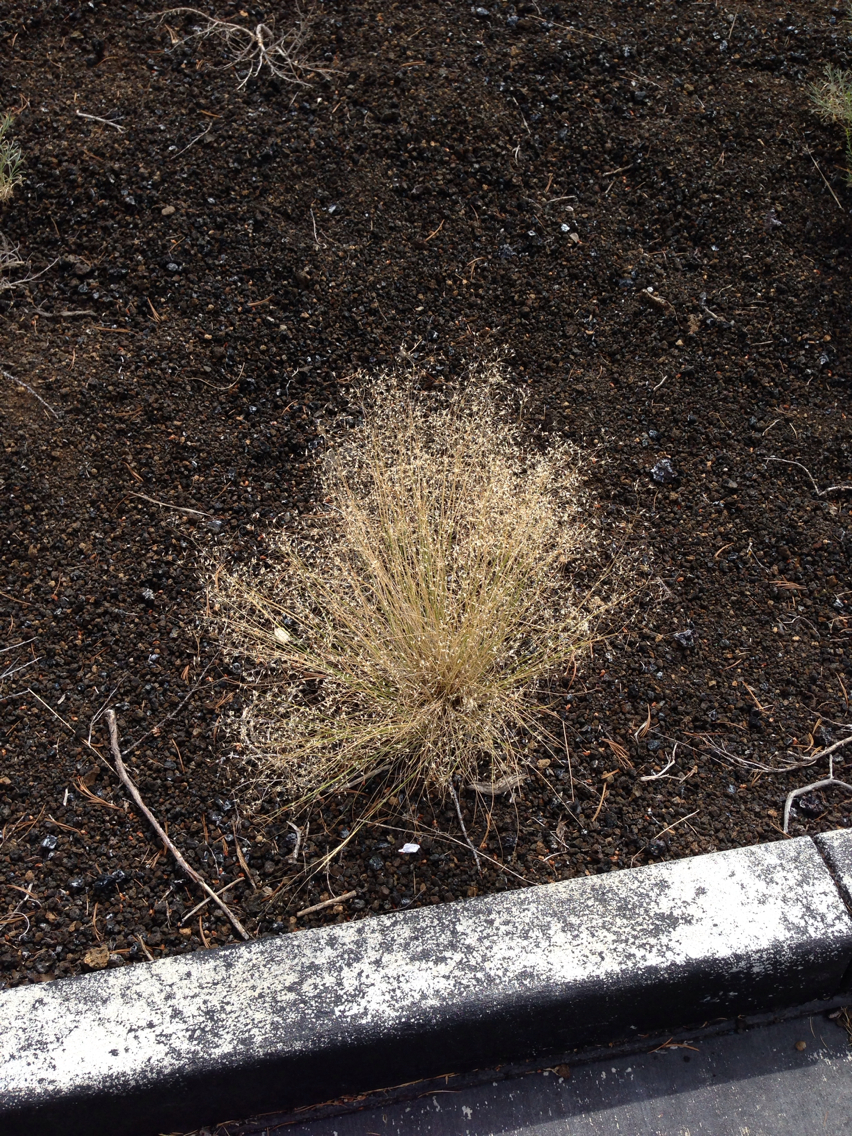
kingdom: Plantae
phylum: Tracheophyta
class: Liliopsida
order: Poales
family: Poaceae
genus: Eriocoma
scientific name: Eriocoma hymenoides
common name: Indian mountain ricegrass
